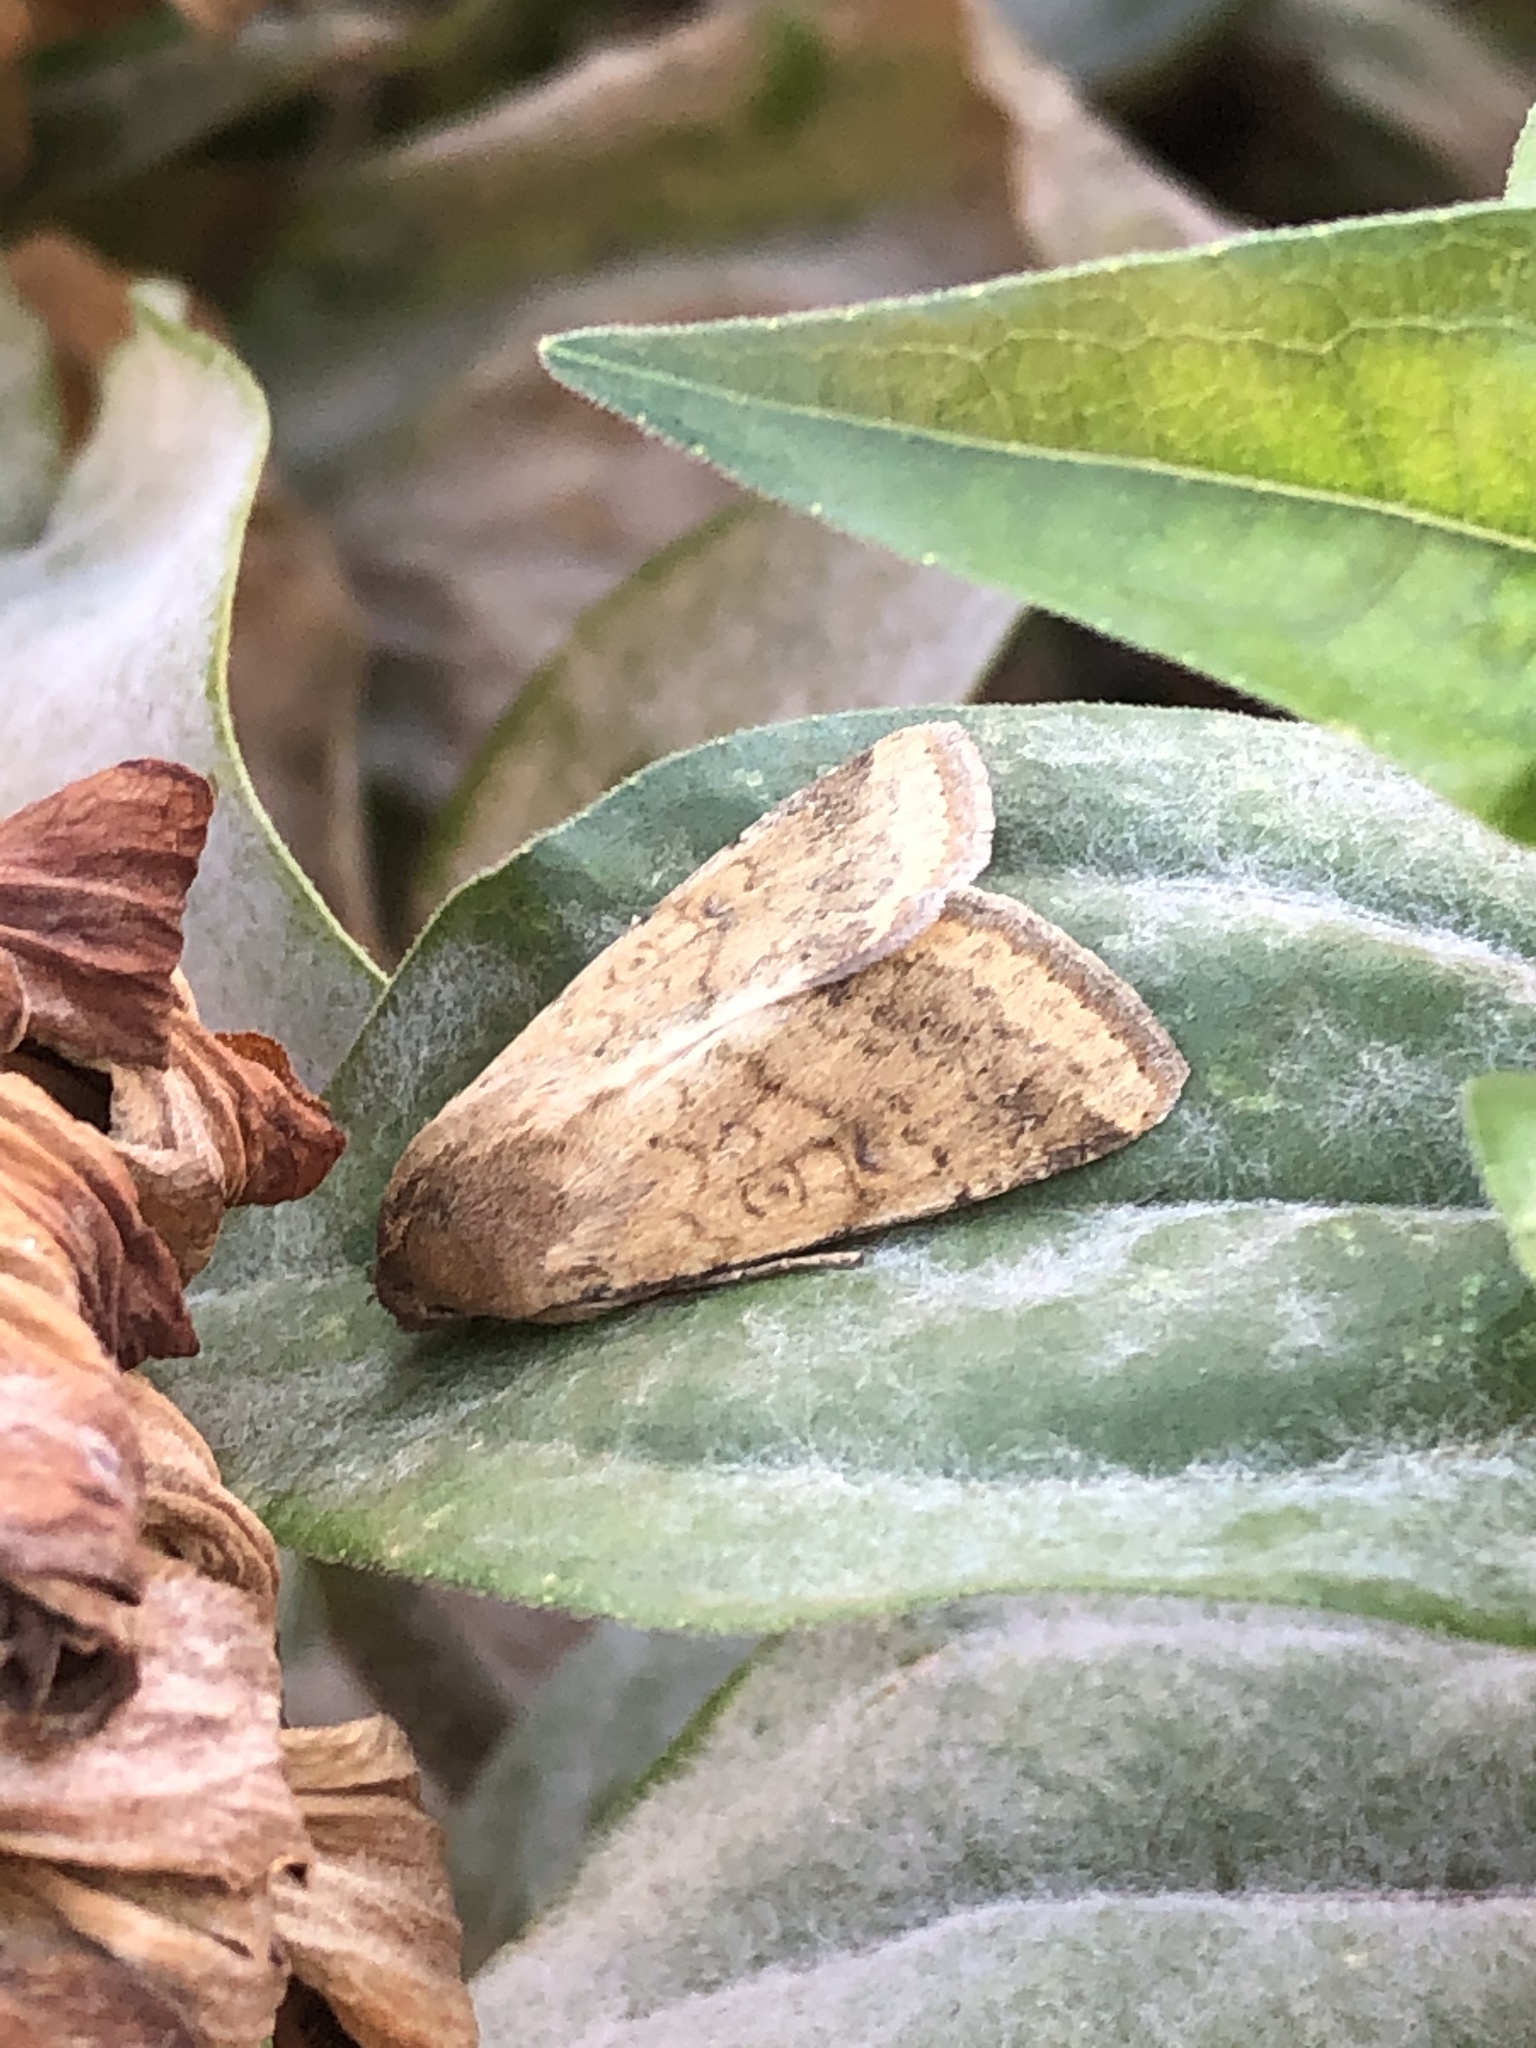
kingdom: Animalia
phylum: Arthropoda
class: Insecta
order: Lepidoptera
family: Noctuidae
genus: Helicoverpa
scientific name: Helicoverpa zea
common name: Bollworm
